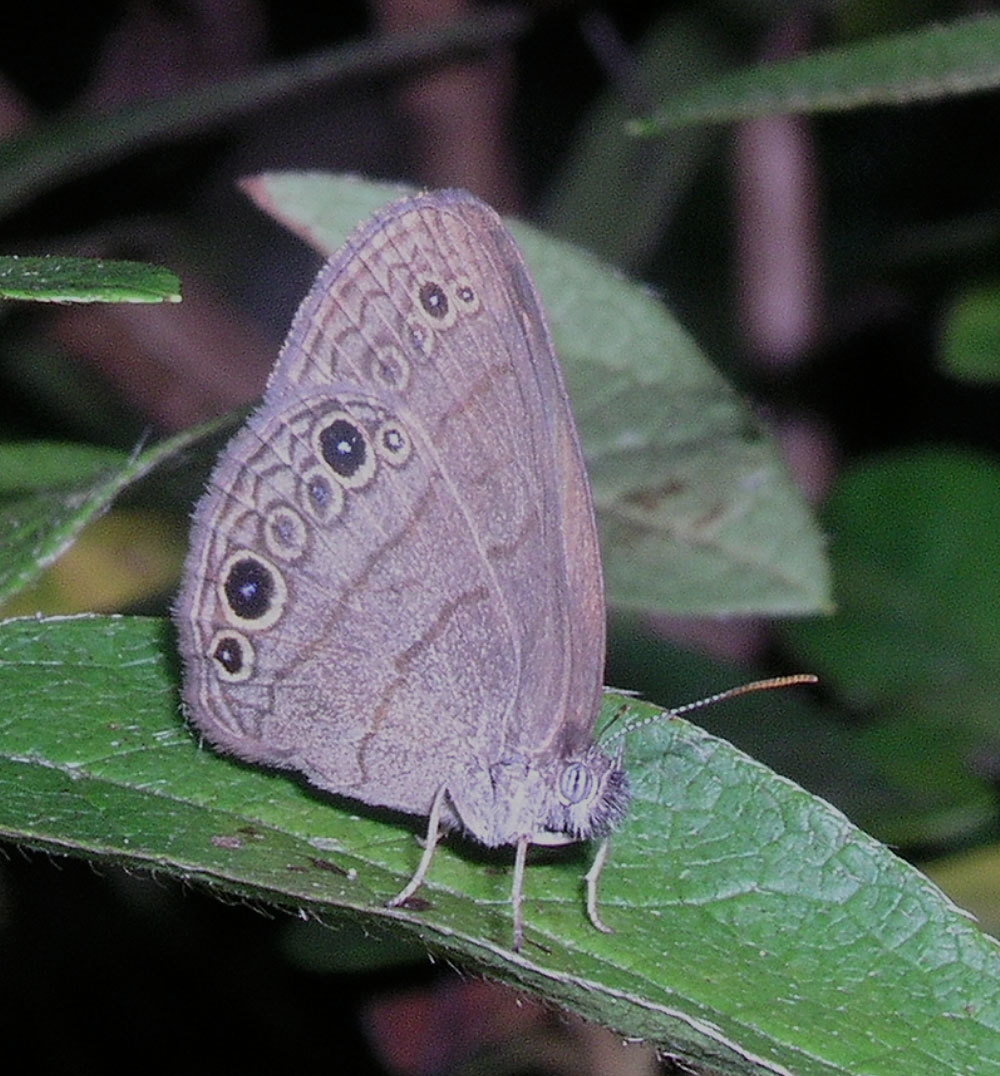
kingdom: Animalia
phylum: Arthropoda
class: Insecta
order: Lepidoptera
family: Nymphalidae
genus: Hermeuptychia
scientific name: Hermeuptychia hermes
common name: Hermes satyr
